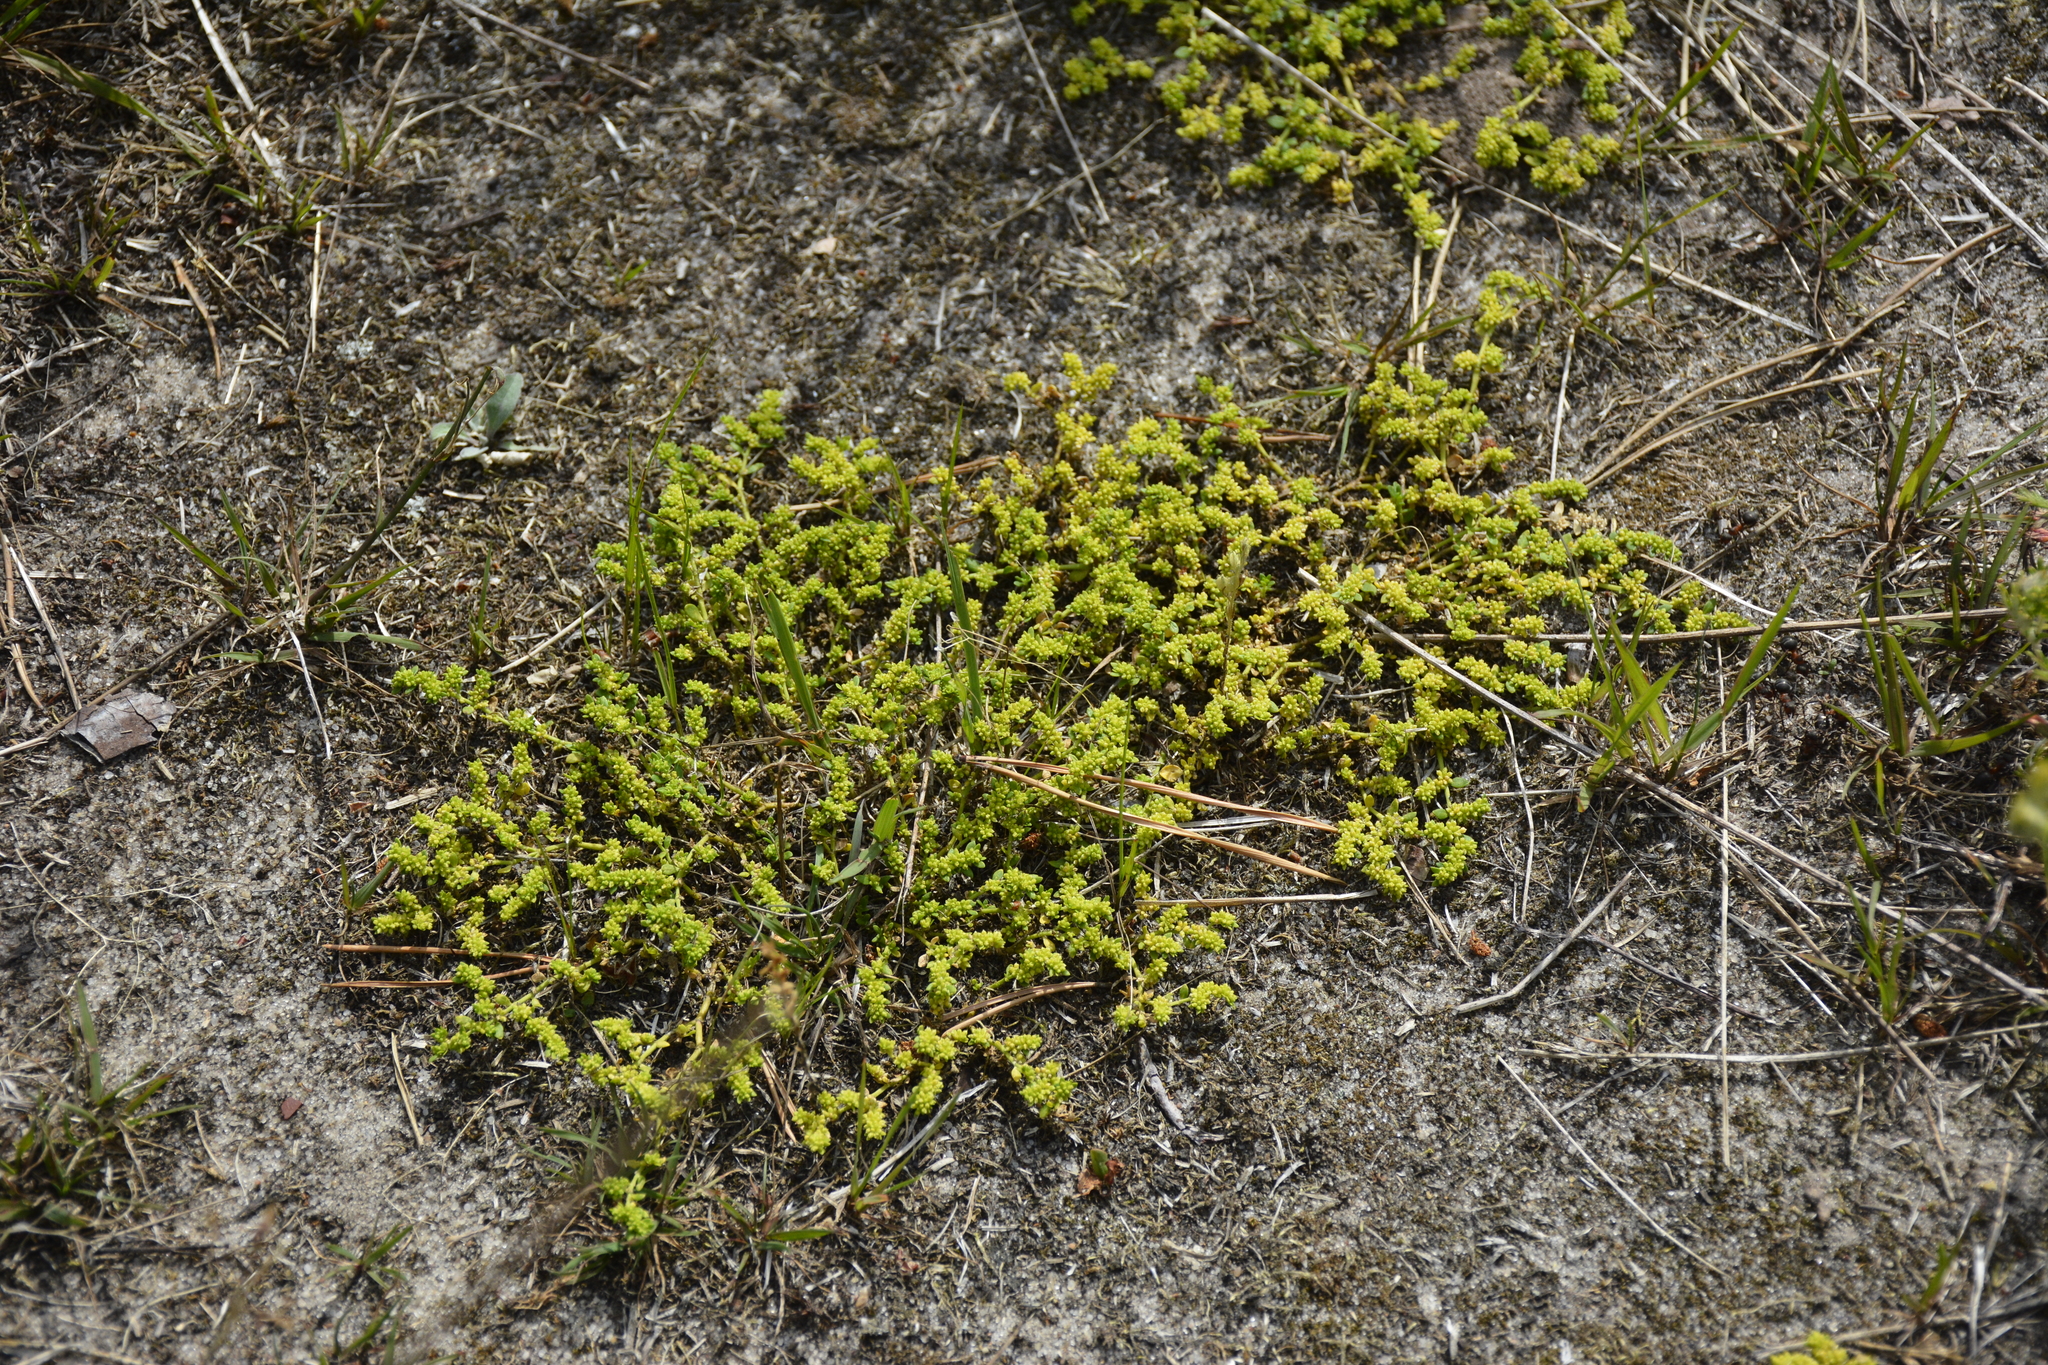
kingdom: Plantae
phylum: Tracheophyta
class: Magnoliopsida
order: Caryophyllales
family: Caryophyllaceae
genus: Herniaria
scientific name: Herniaria glabra
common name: Smooth rupturewort
